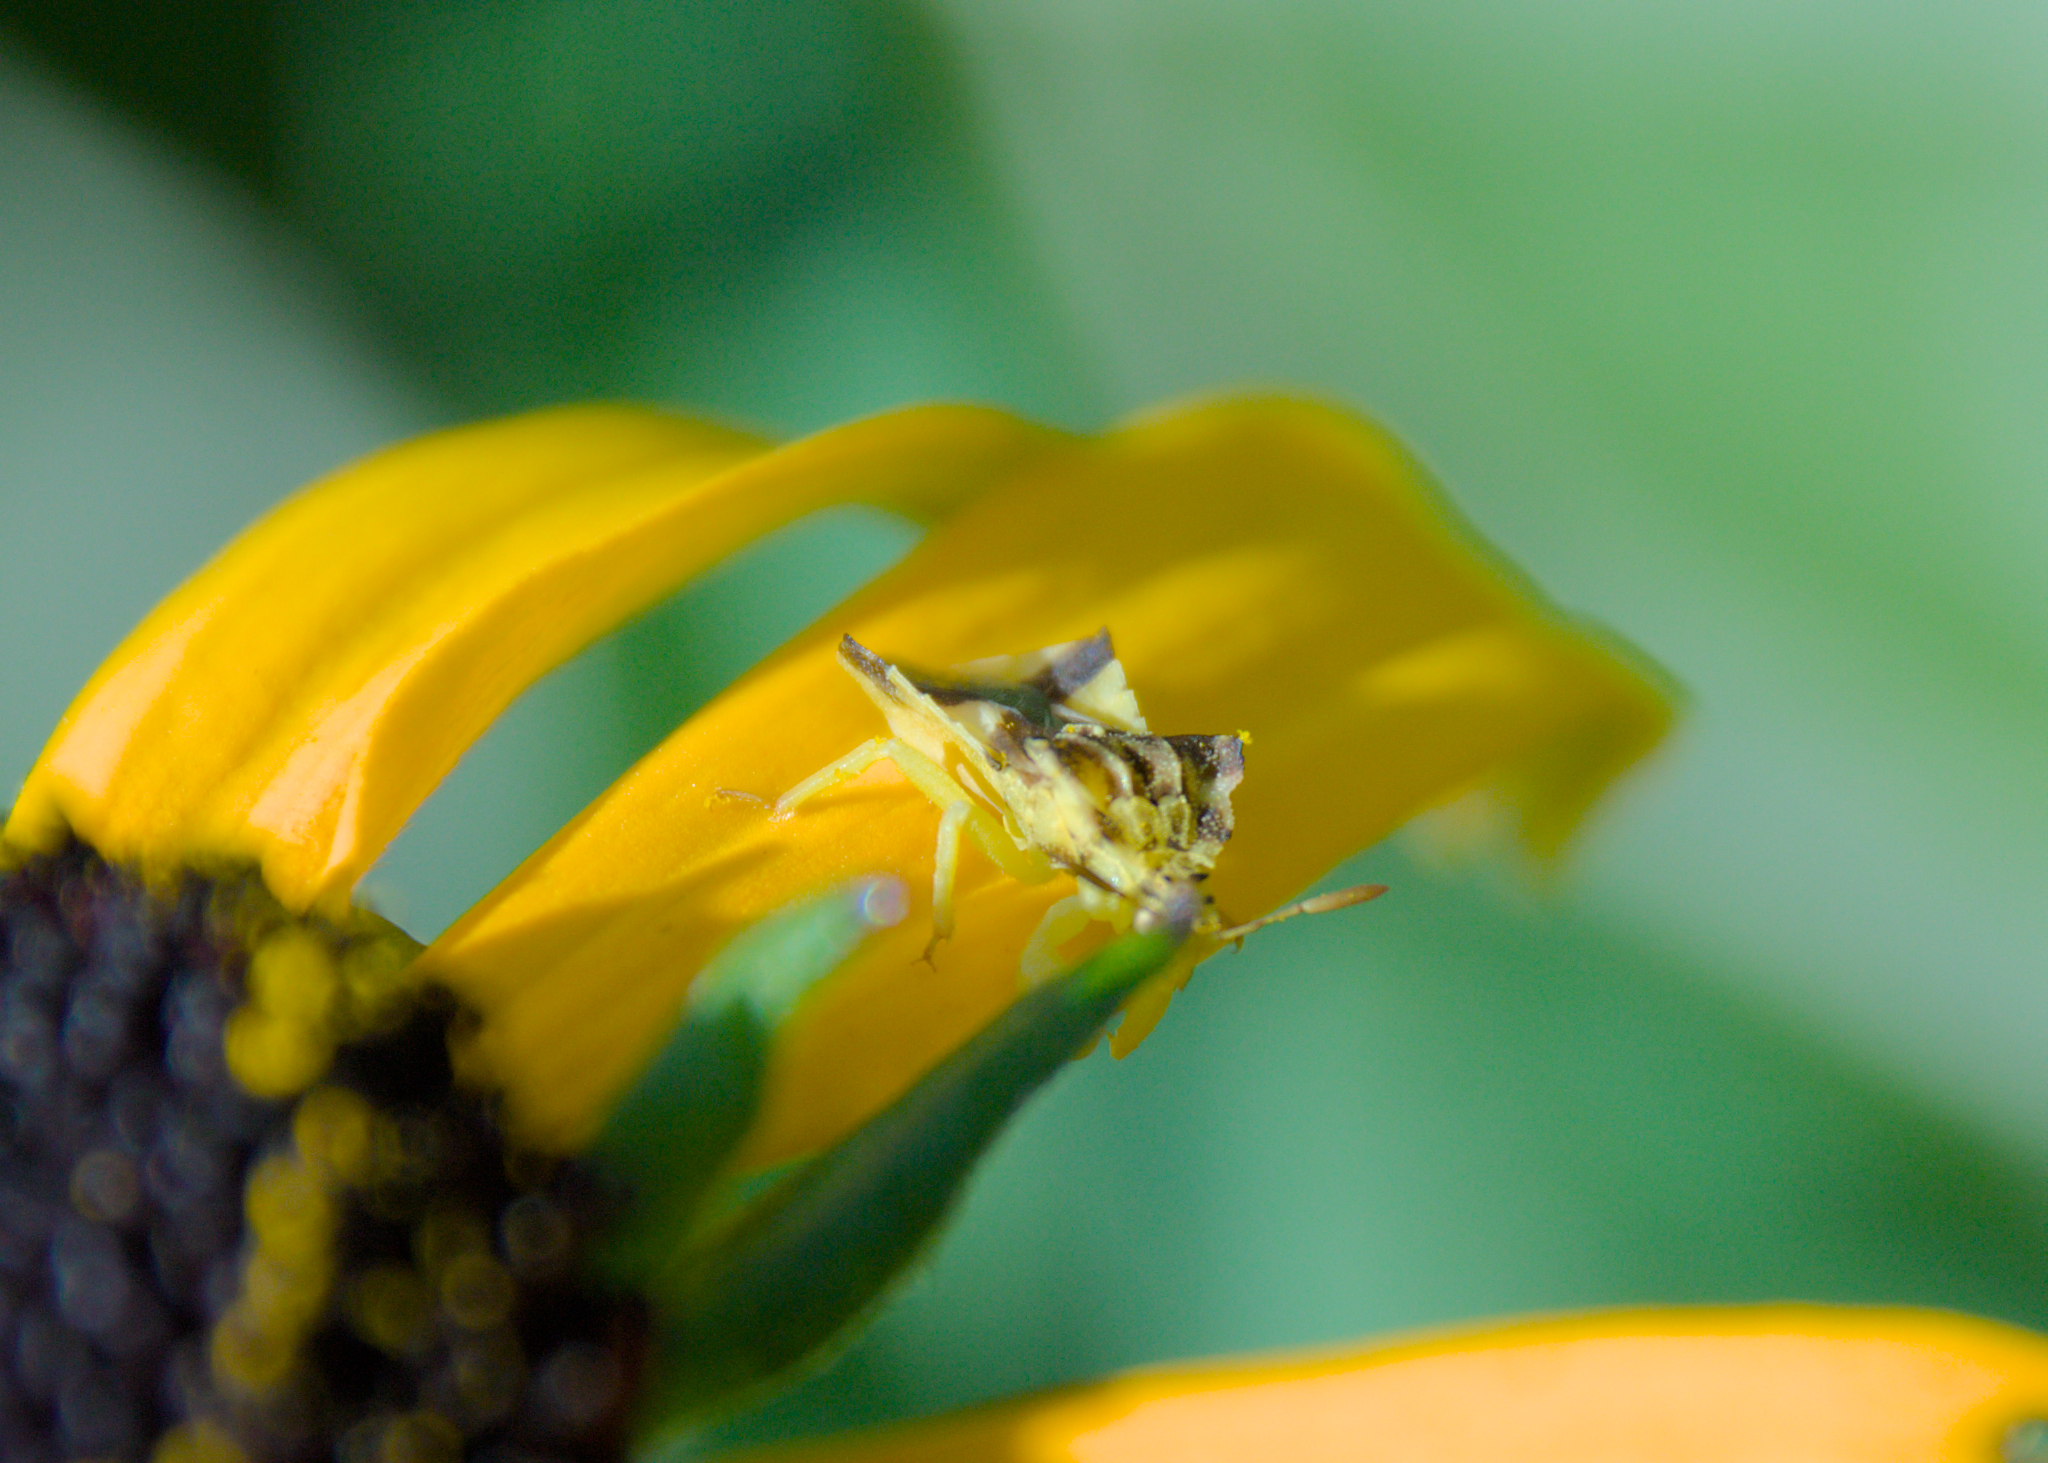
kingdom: Animalia
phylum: Arthropoda
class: Insecta
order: Hemiptera
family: Reduviidae
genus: Phymata
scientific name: Phymata americana
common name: Jagged ambush bug
